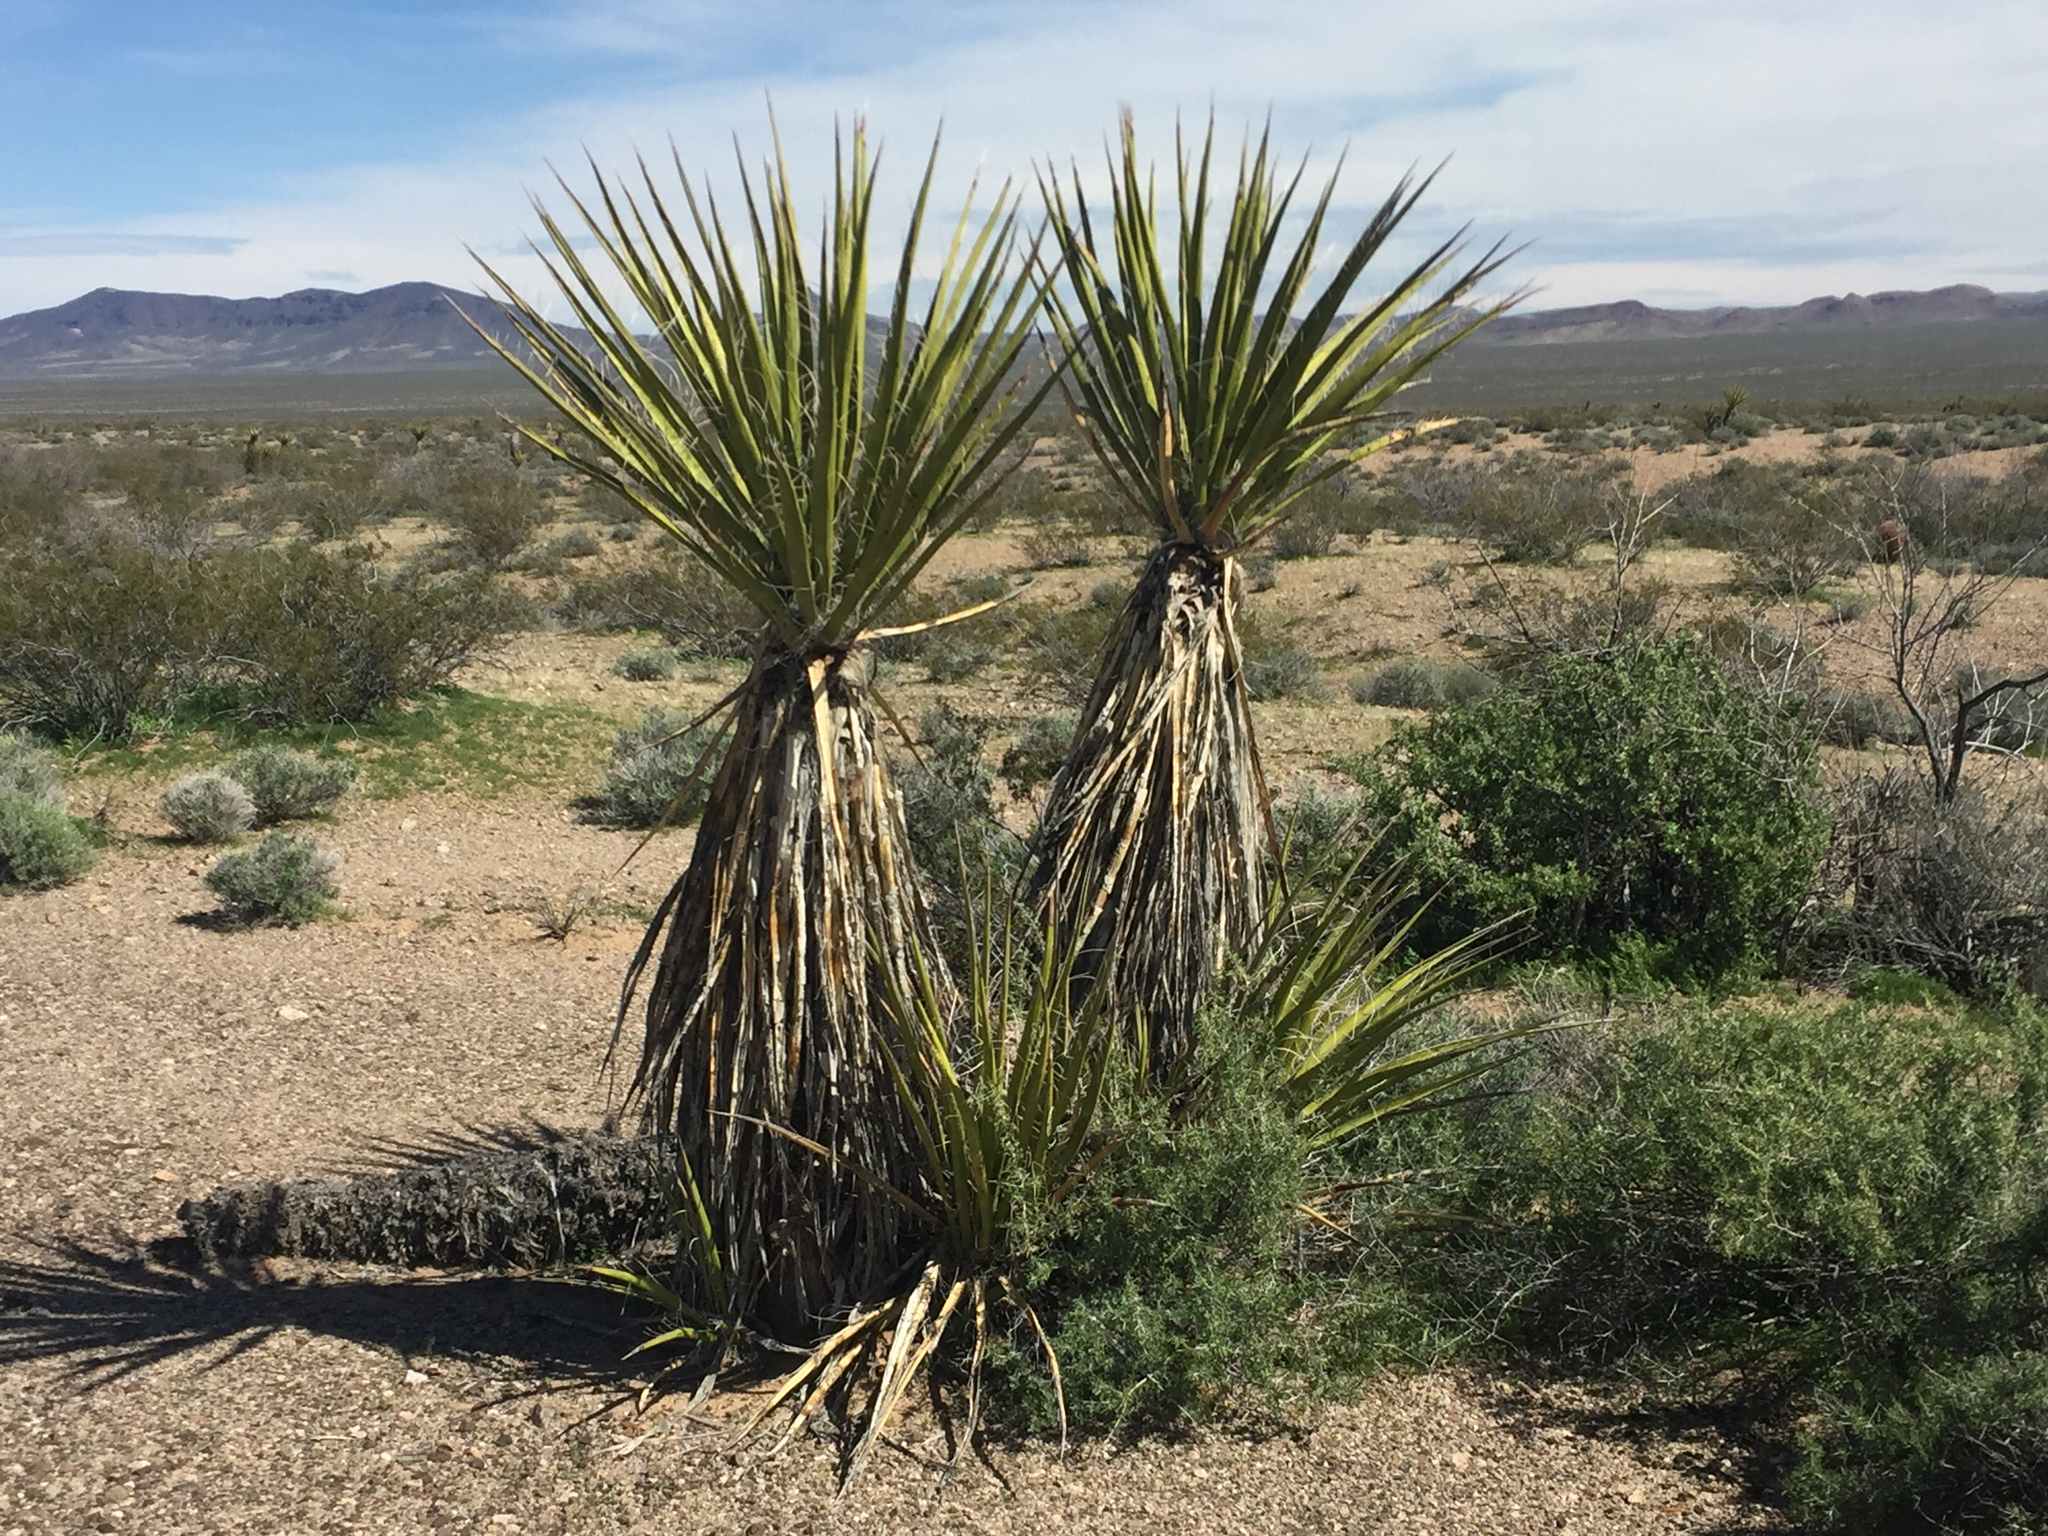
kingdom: Plantae
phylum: Tracheophyta
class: Liliopsida
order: Asparagales
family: Asparagaceae
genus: Yucca
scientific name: Yucca schidigera
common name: Mojave yucca
